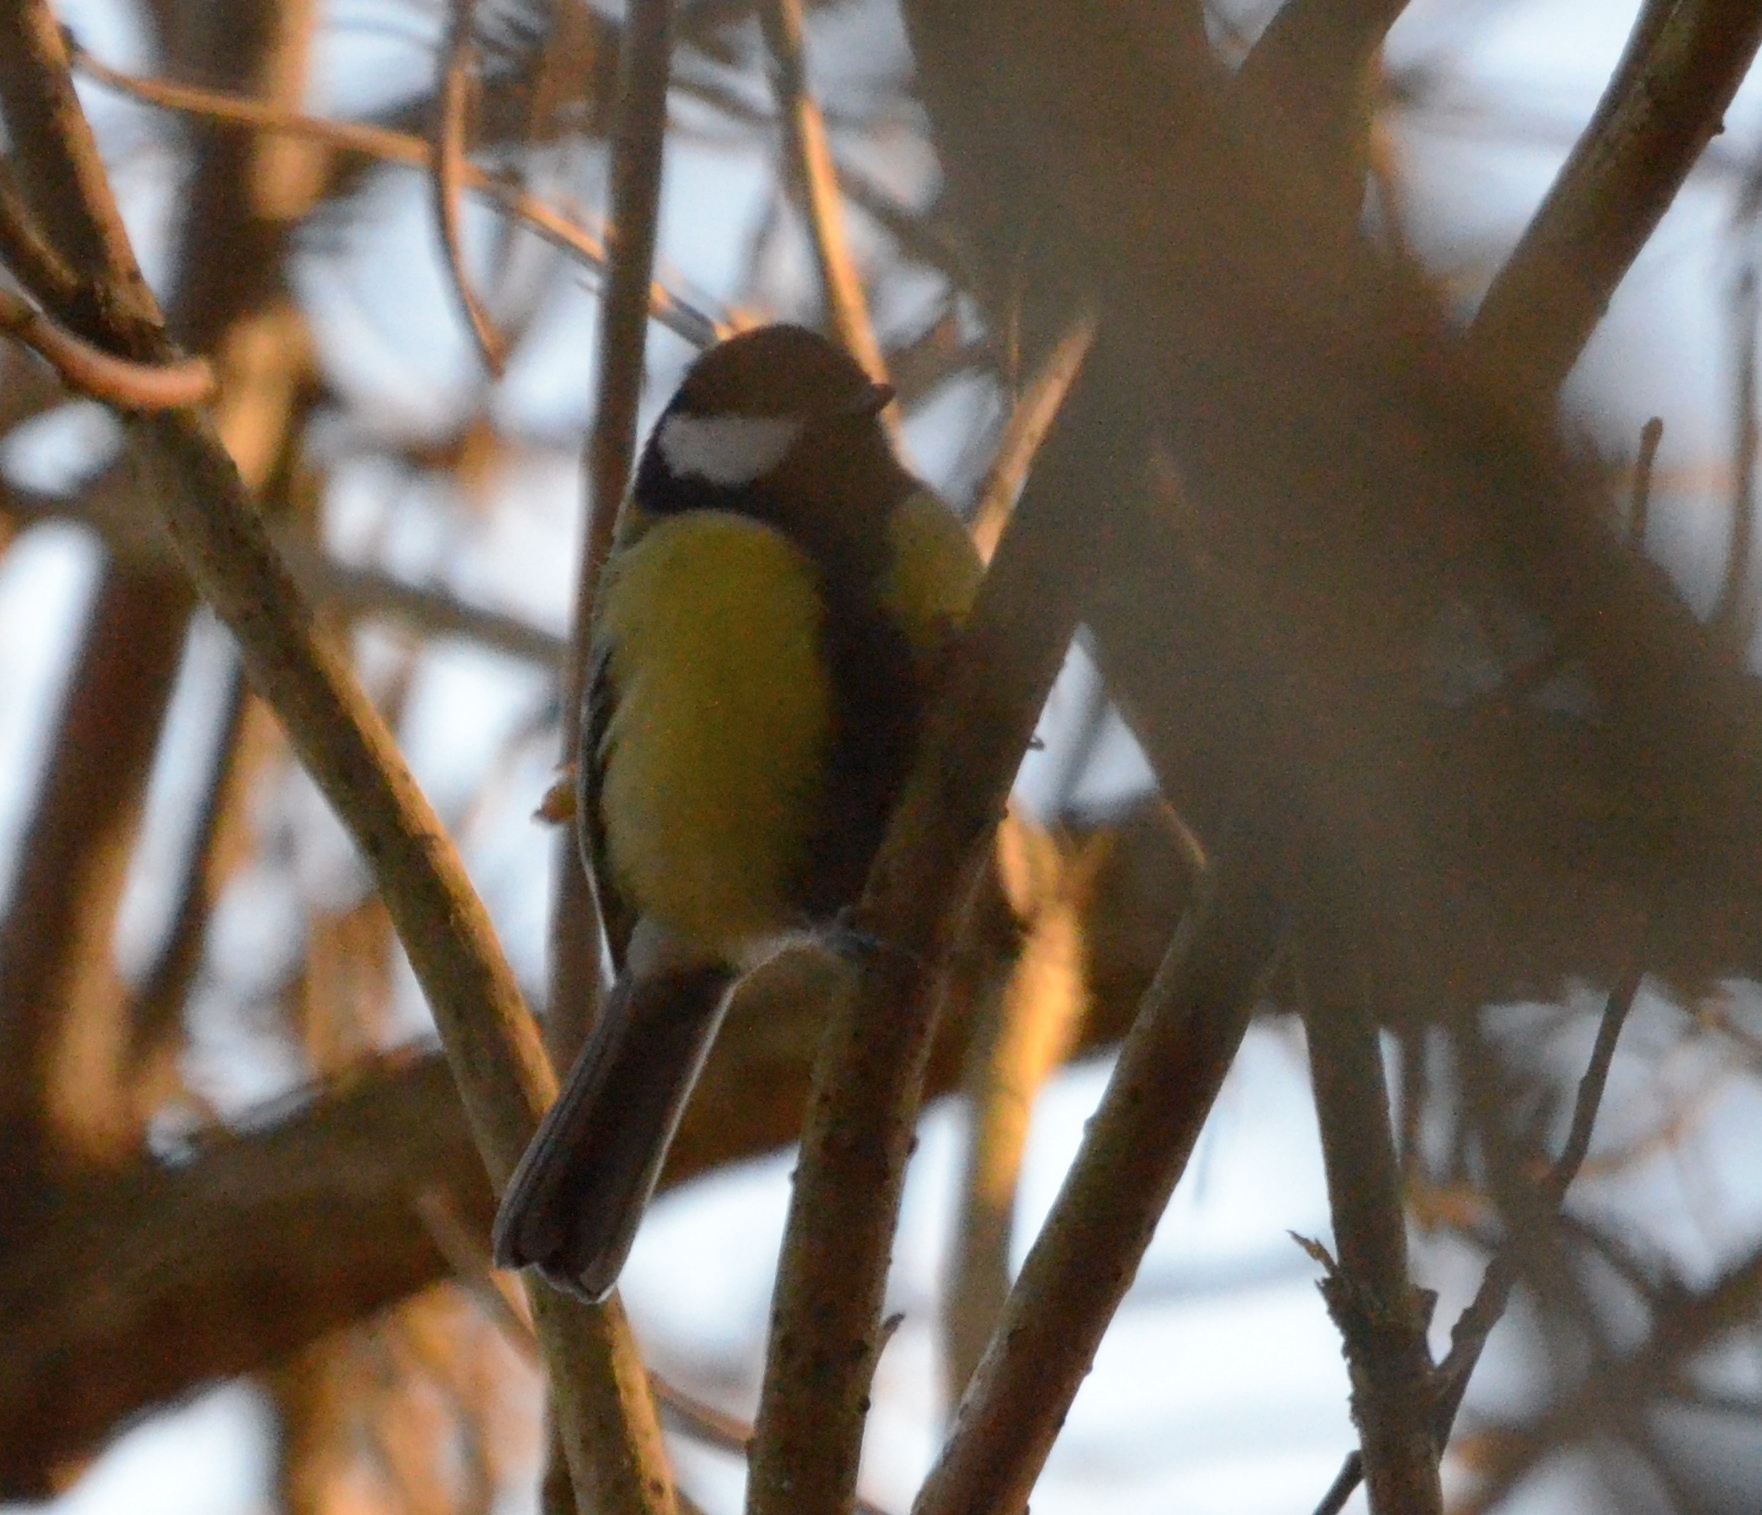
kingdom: Animalia
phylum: Chordata
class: Aves
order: Passeriformes
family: Paridae
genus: Parus
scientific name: Parus major
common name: Great tit
